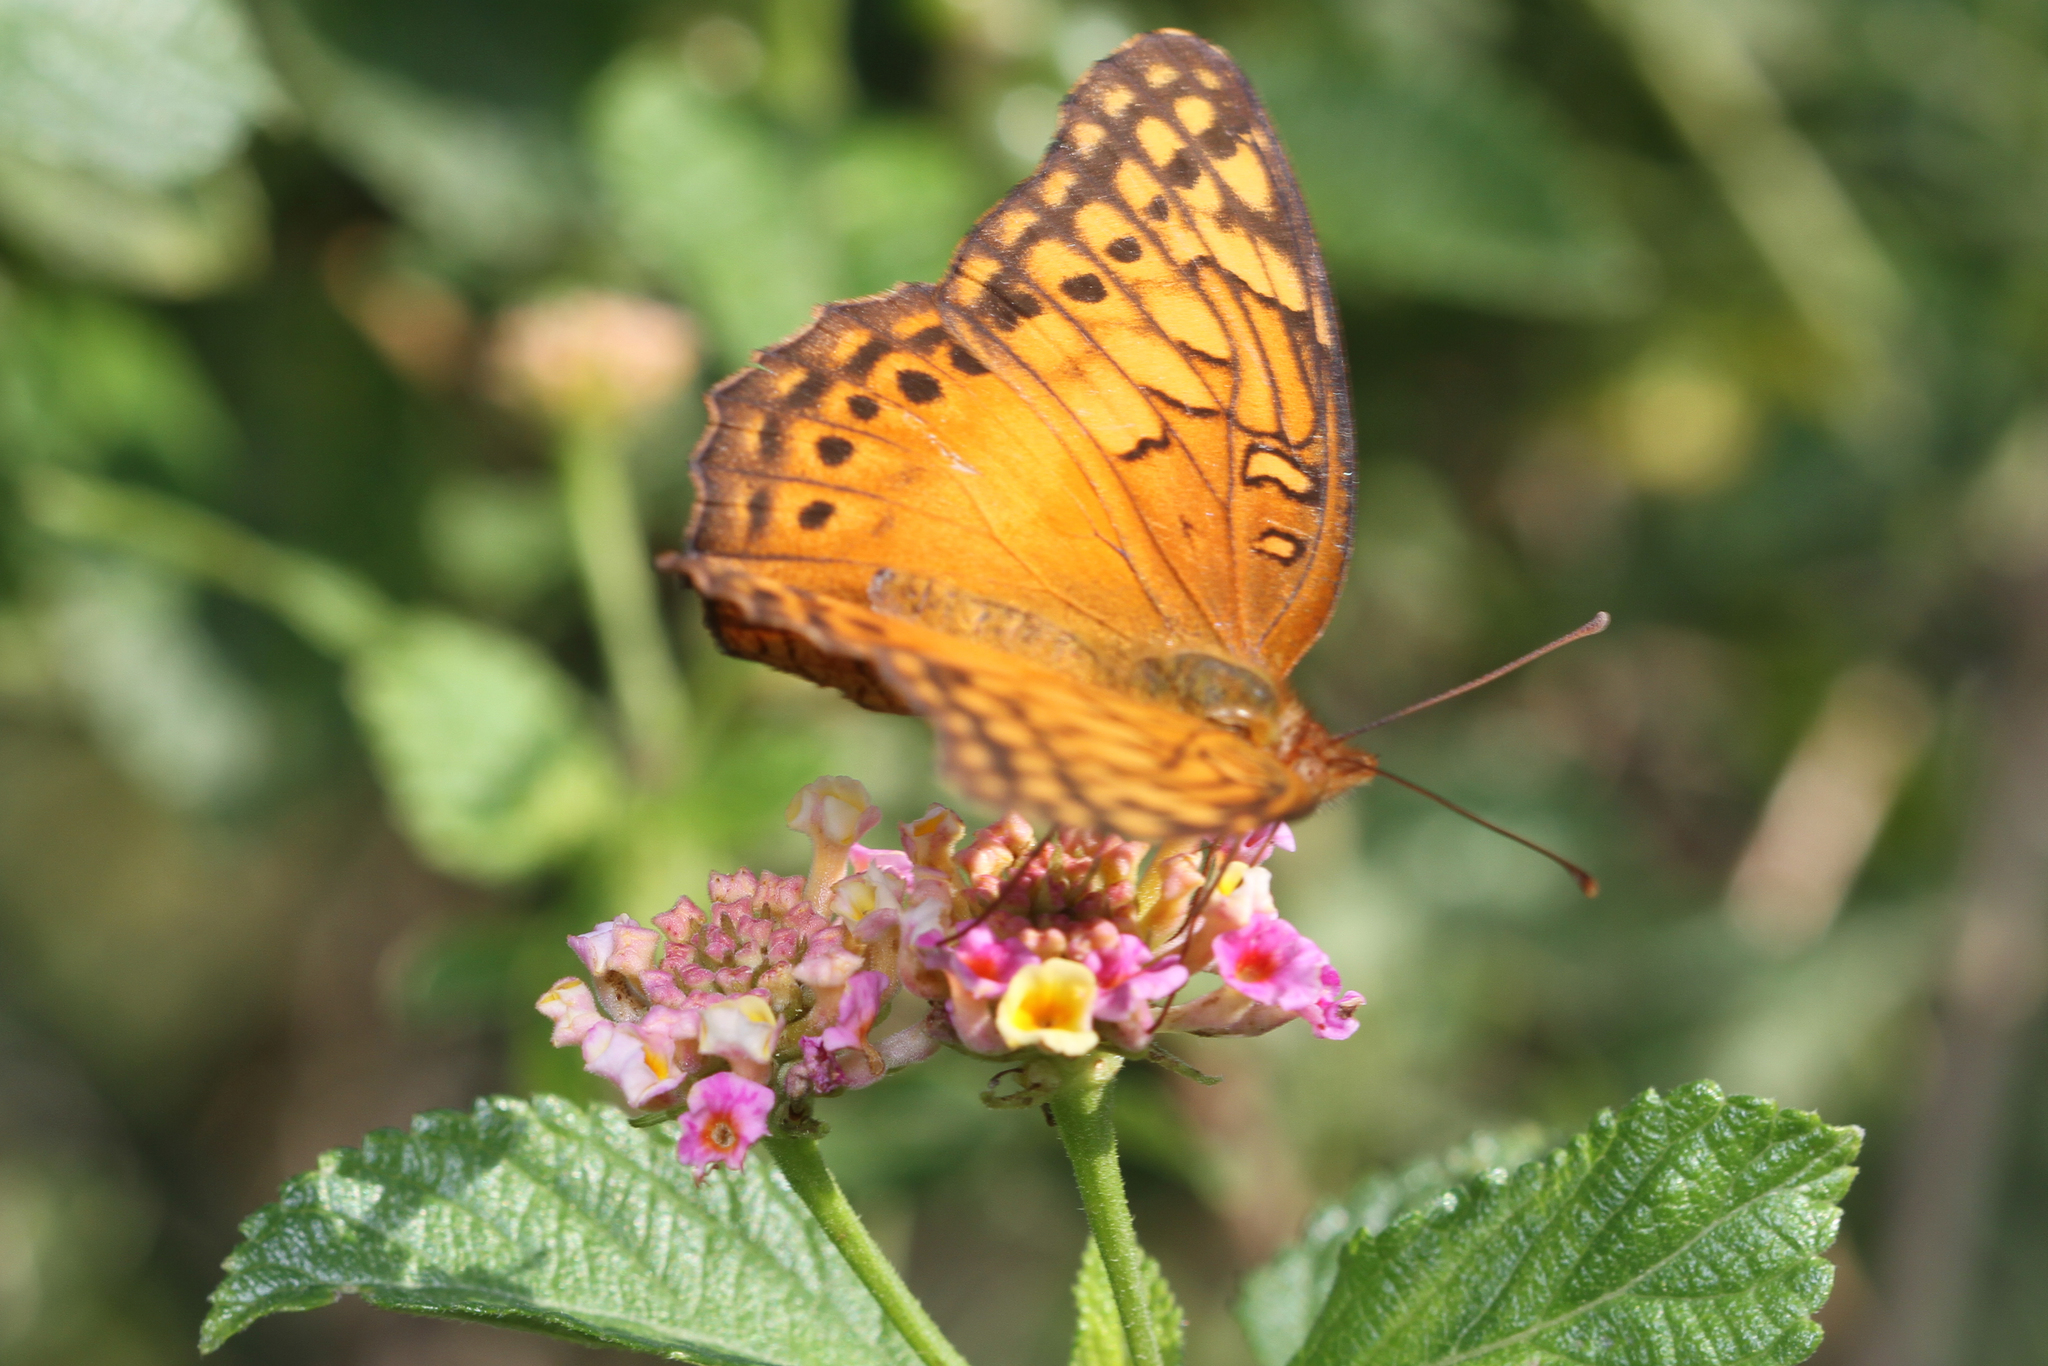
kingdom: Animalia
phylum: Arthropoda
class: Insecta
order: Lepidoptera
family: Nymphalidae
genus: Euptoieta
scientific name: Euptoieta hegesia
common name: Mexican fritillary
